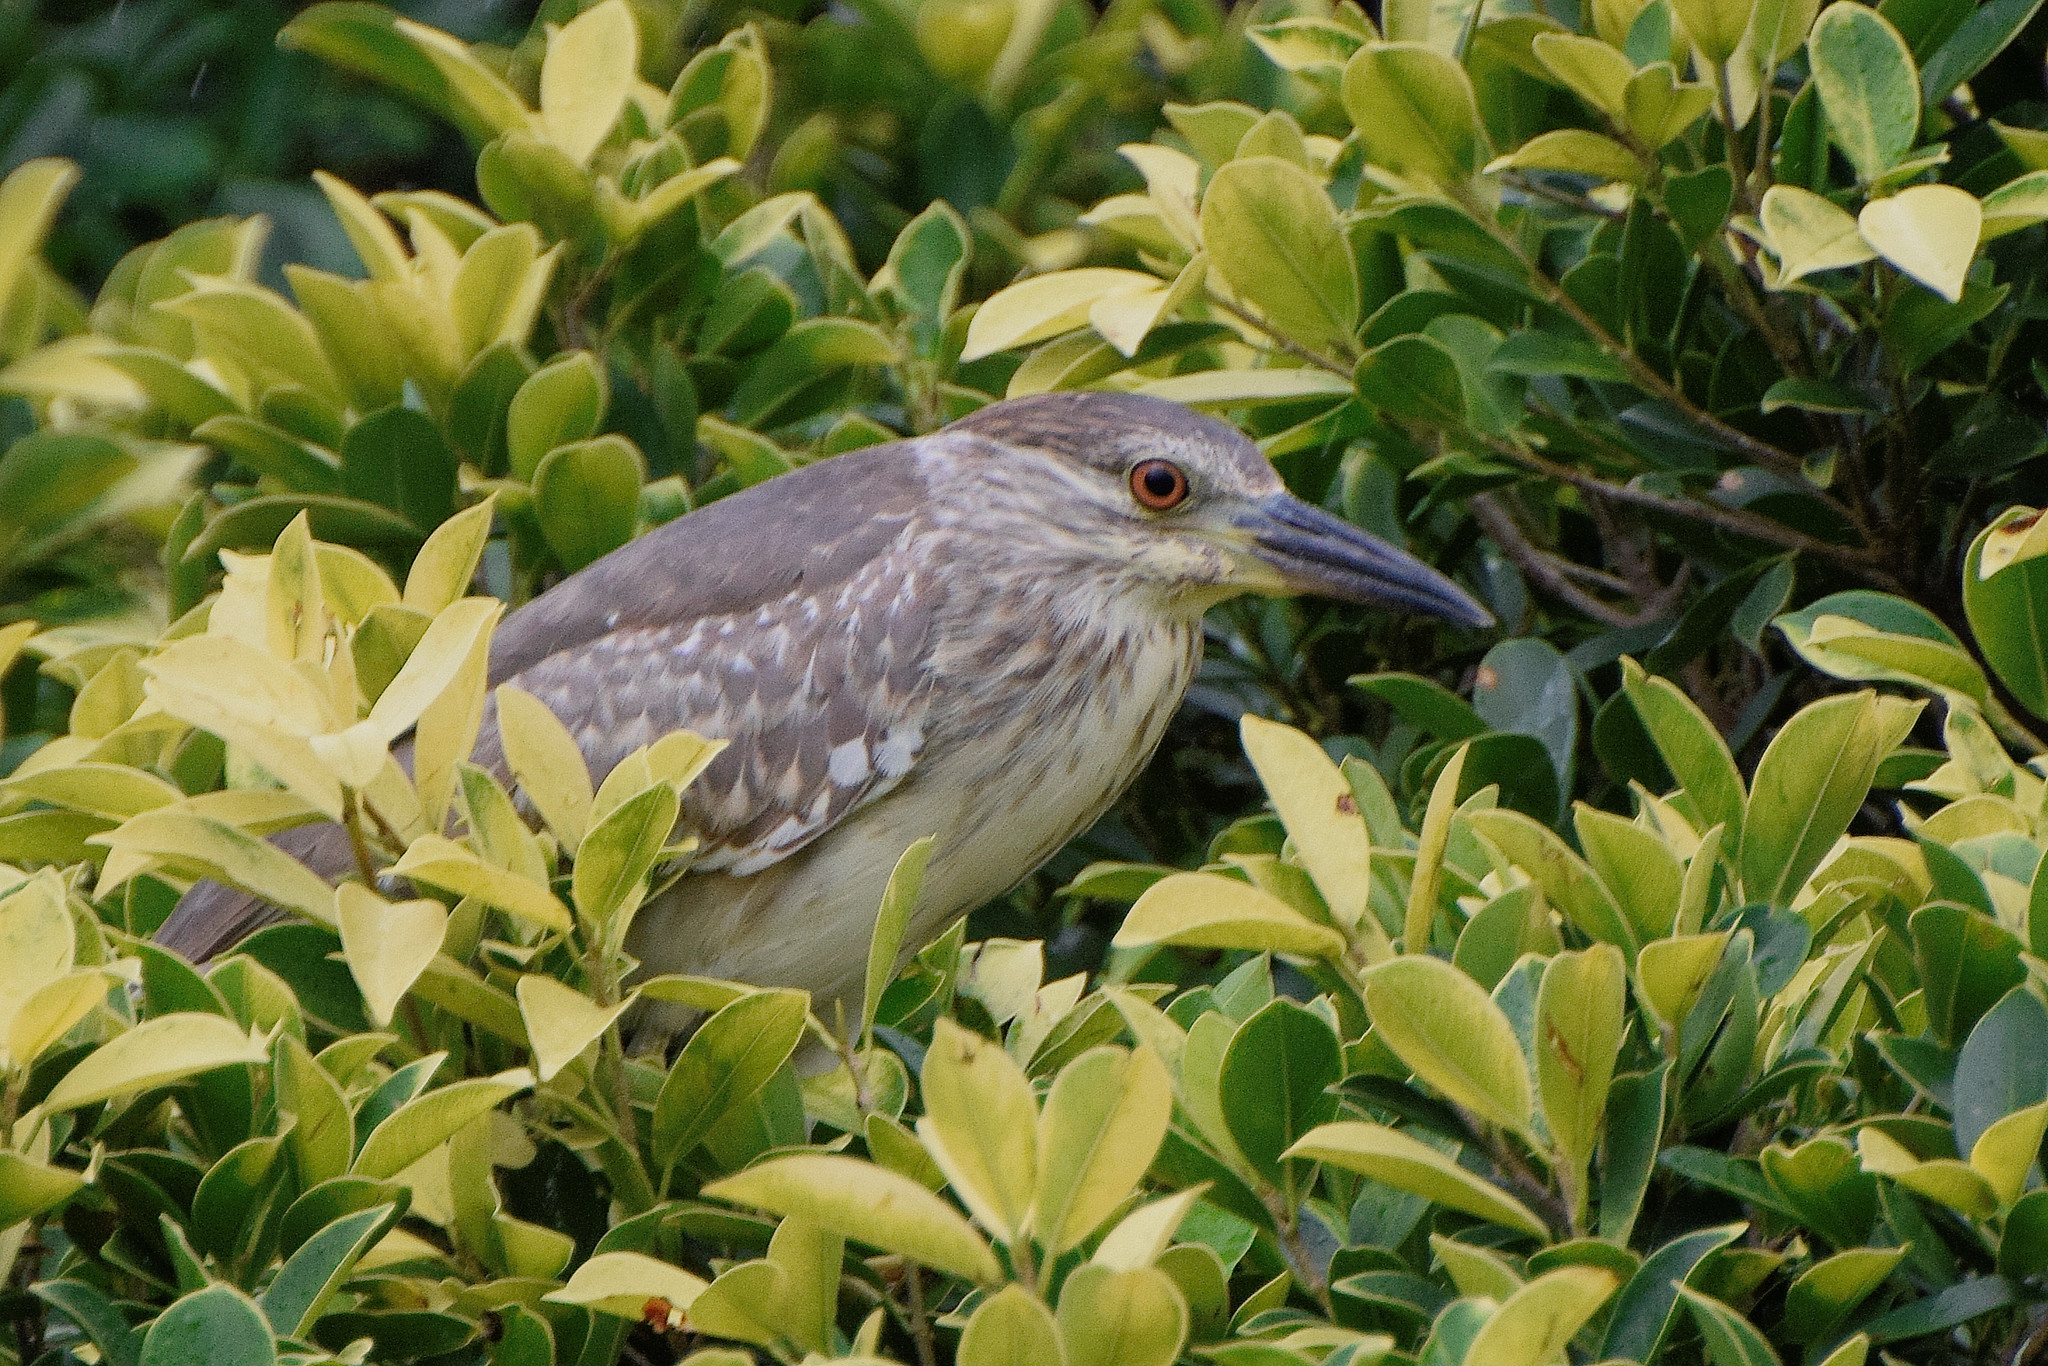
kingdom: Animalia
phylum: Chordata
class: Aves
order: Pelecaniformes
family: Ardeidae
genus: Nycticorax
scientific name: Nycticorax nycticorax
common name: Black-crowned night heron
